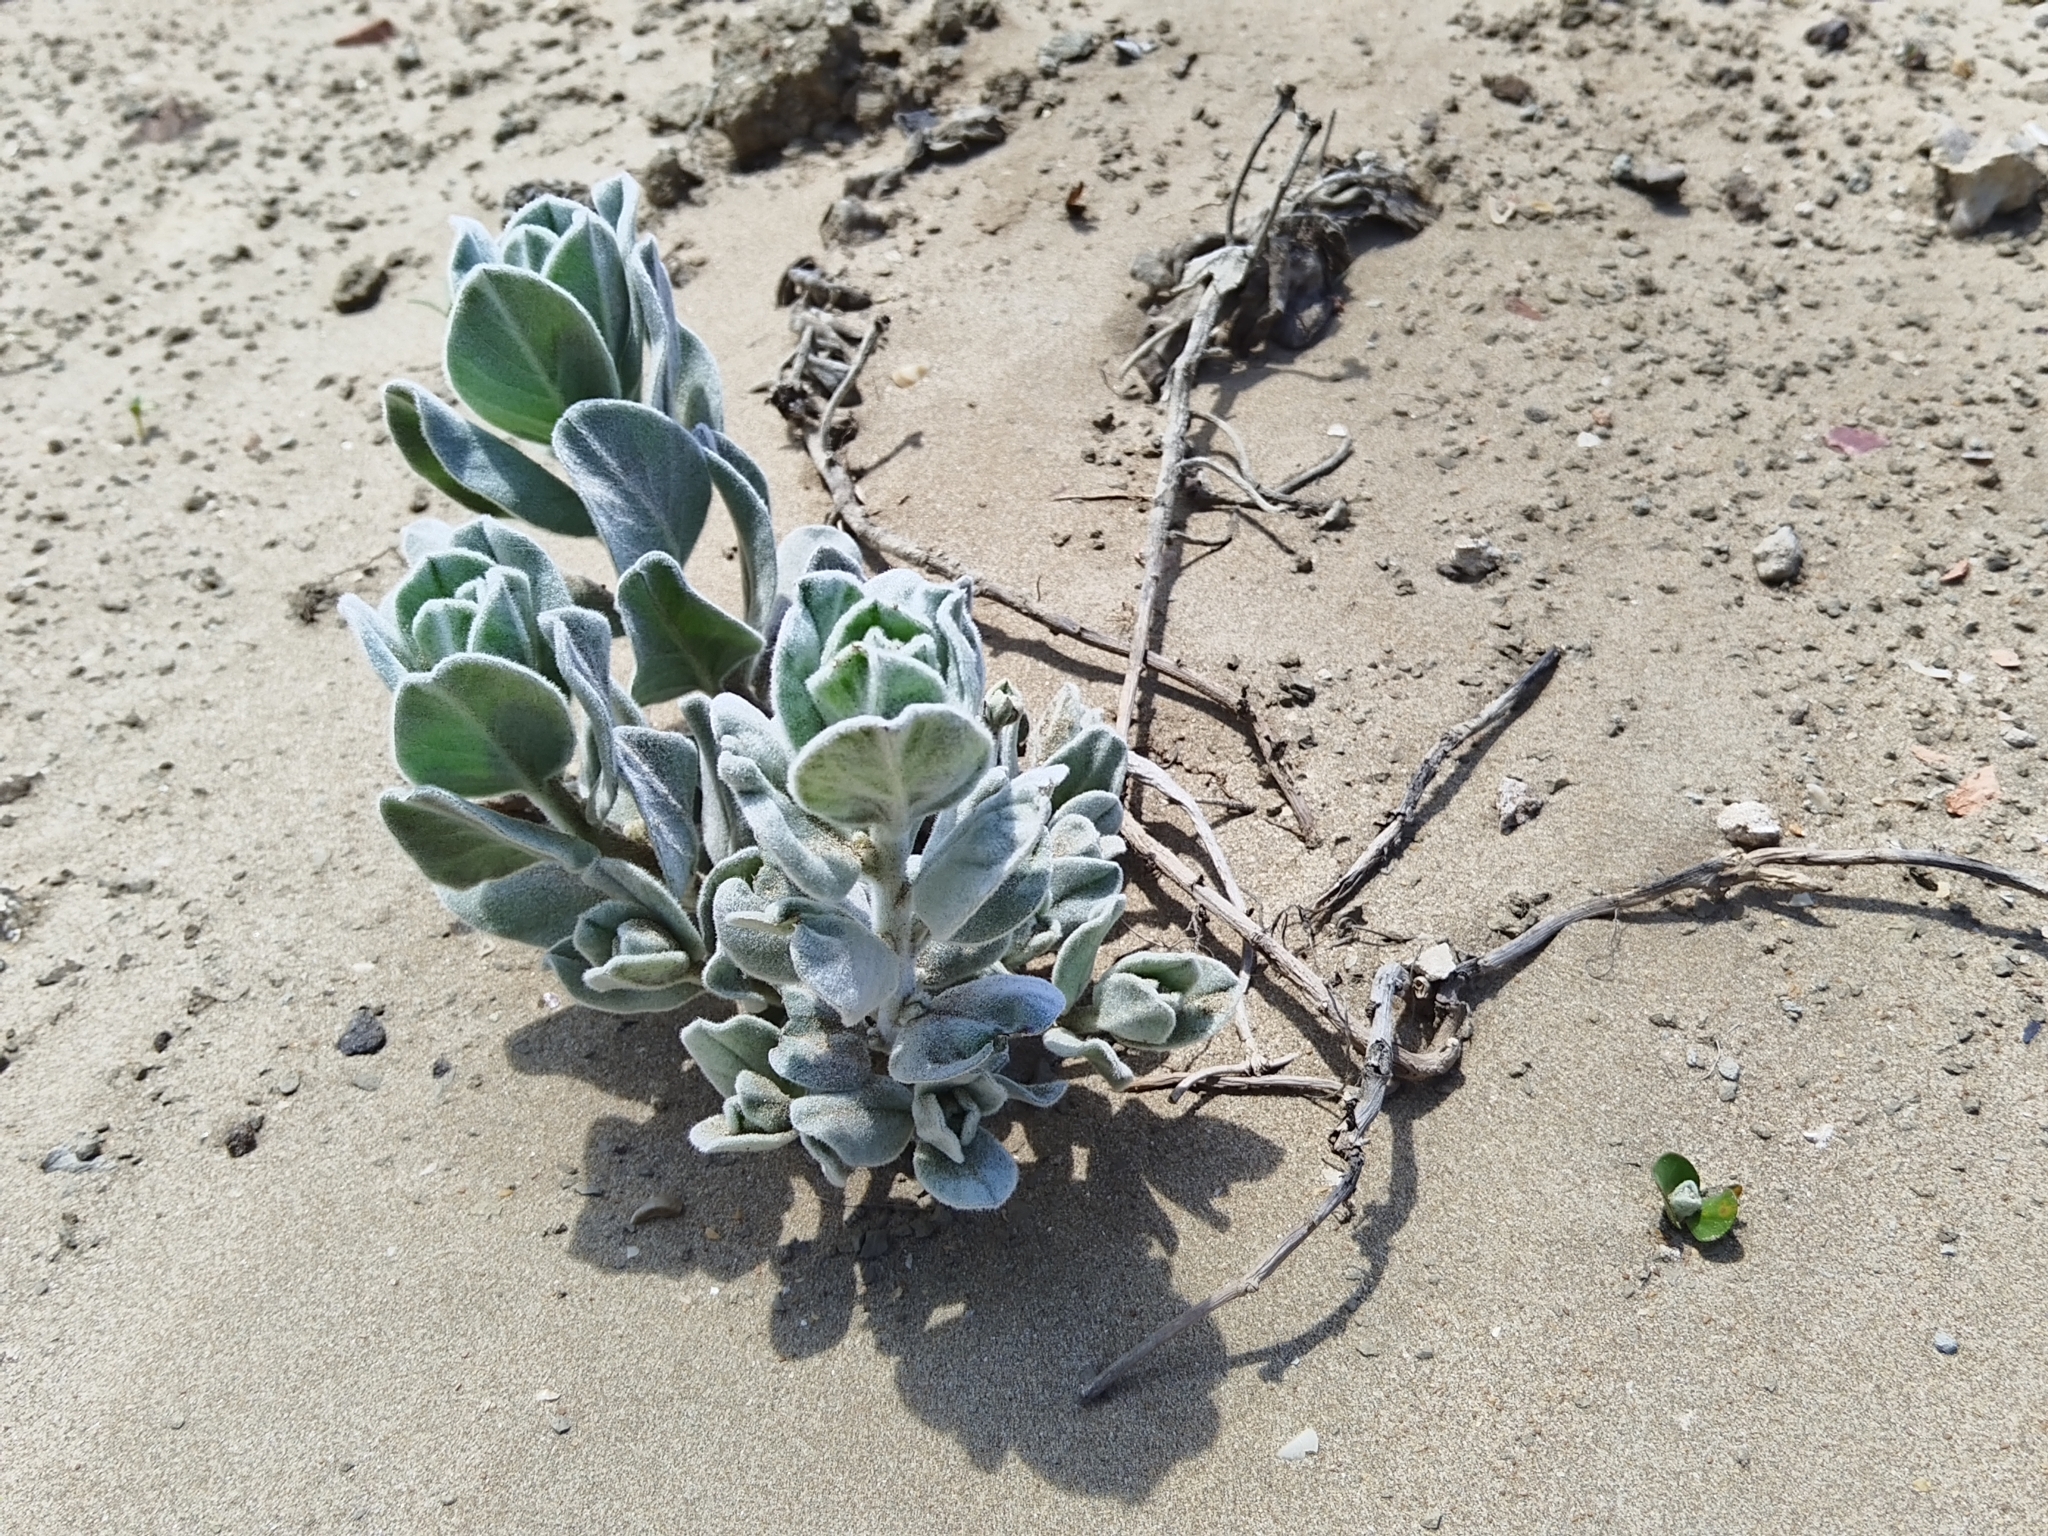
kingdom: Plantae
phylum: Tracheophyta
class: Magnoliopsida
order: Solanales
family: Convolvulaceae
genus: Convolvulus
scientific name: Convolvulus persicus
